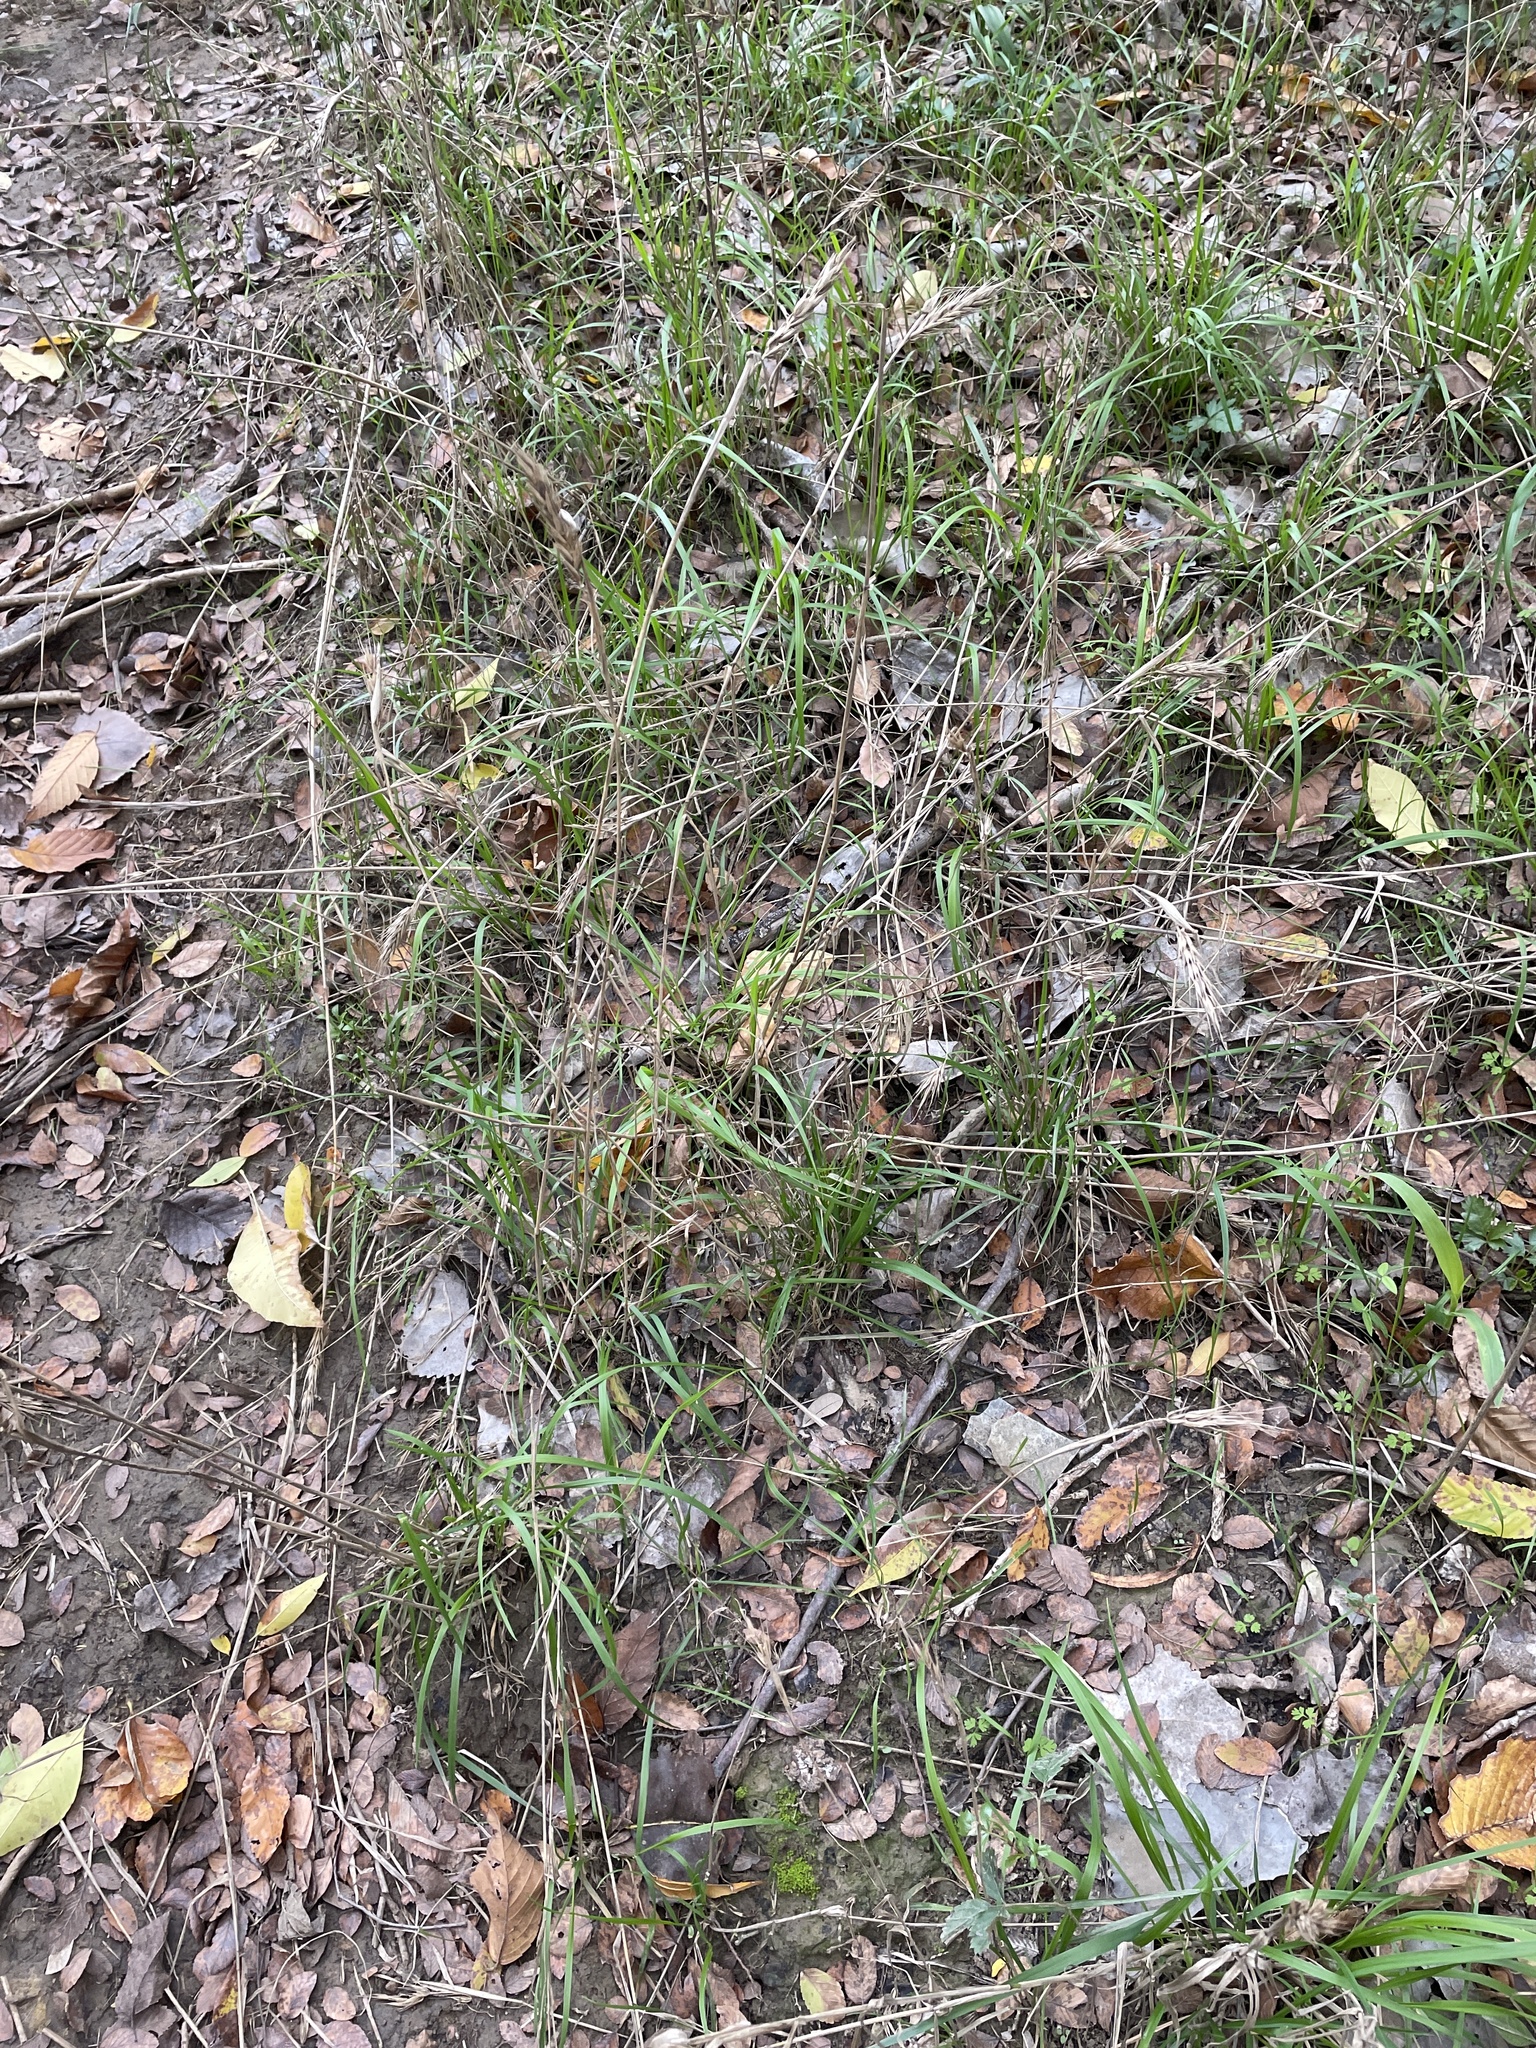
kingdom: Plantae
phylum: Tracheophyta
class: Liliopsida
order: Poales
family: Poaceae
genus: Elymus
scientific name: Elymus virginicus
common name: Common eastern wildrye
